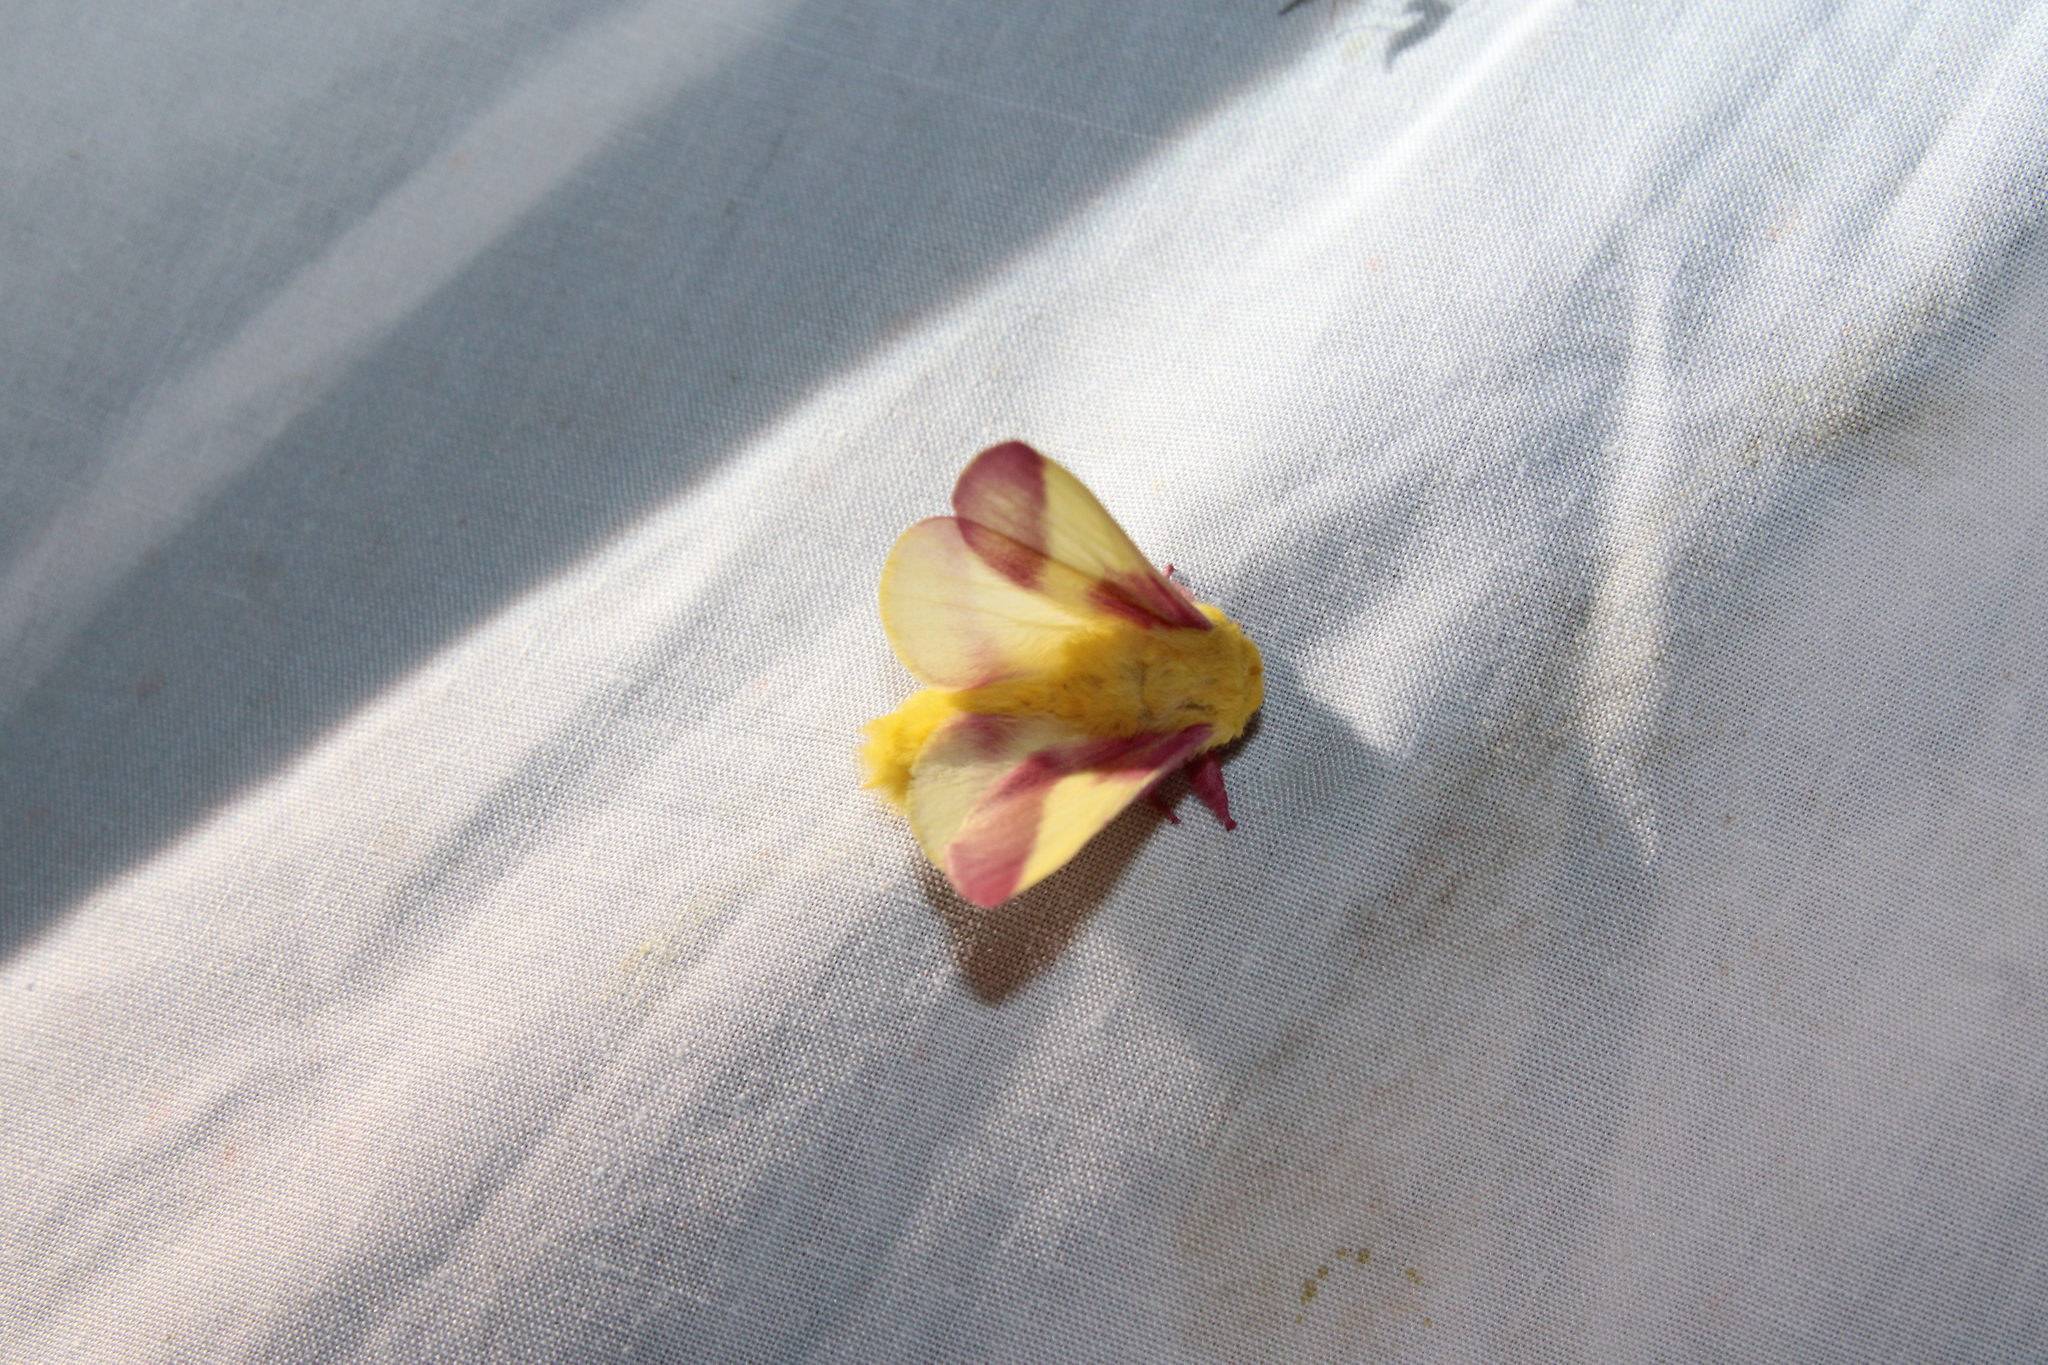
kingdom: Animalia
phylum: Arthropoda
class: Insecta
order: Lepidoptera
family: Saturniidae
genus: Dryocampa
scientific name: Dryocampa rubicunda
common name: Rosy maple moth
